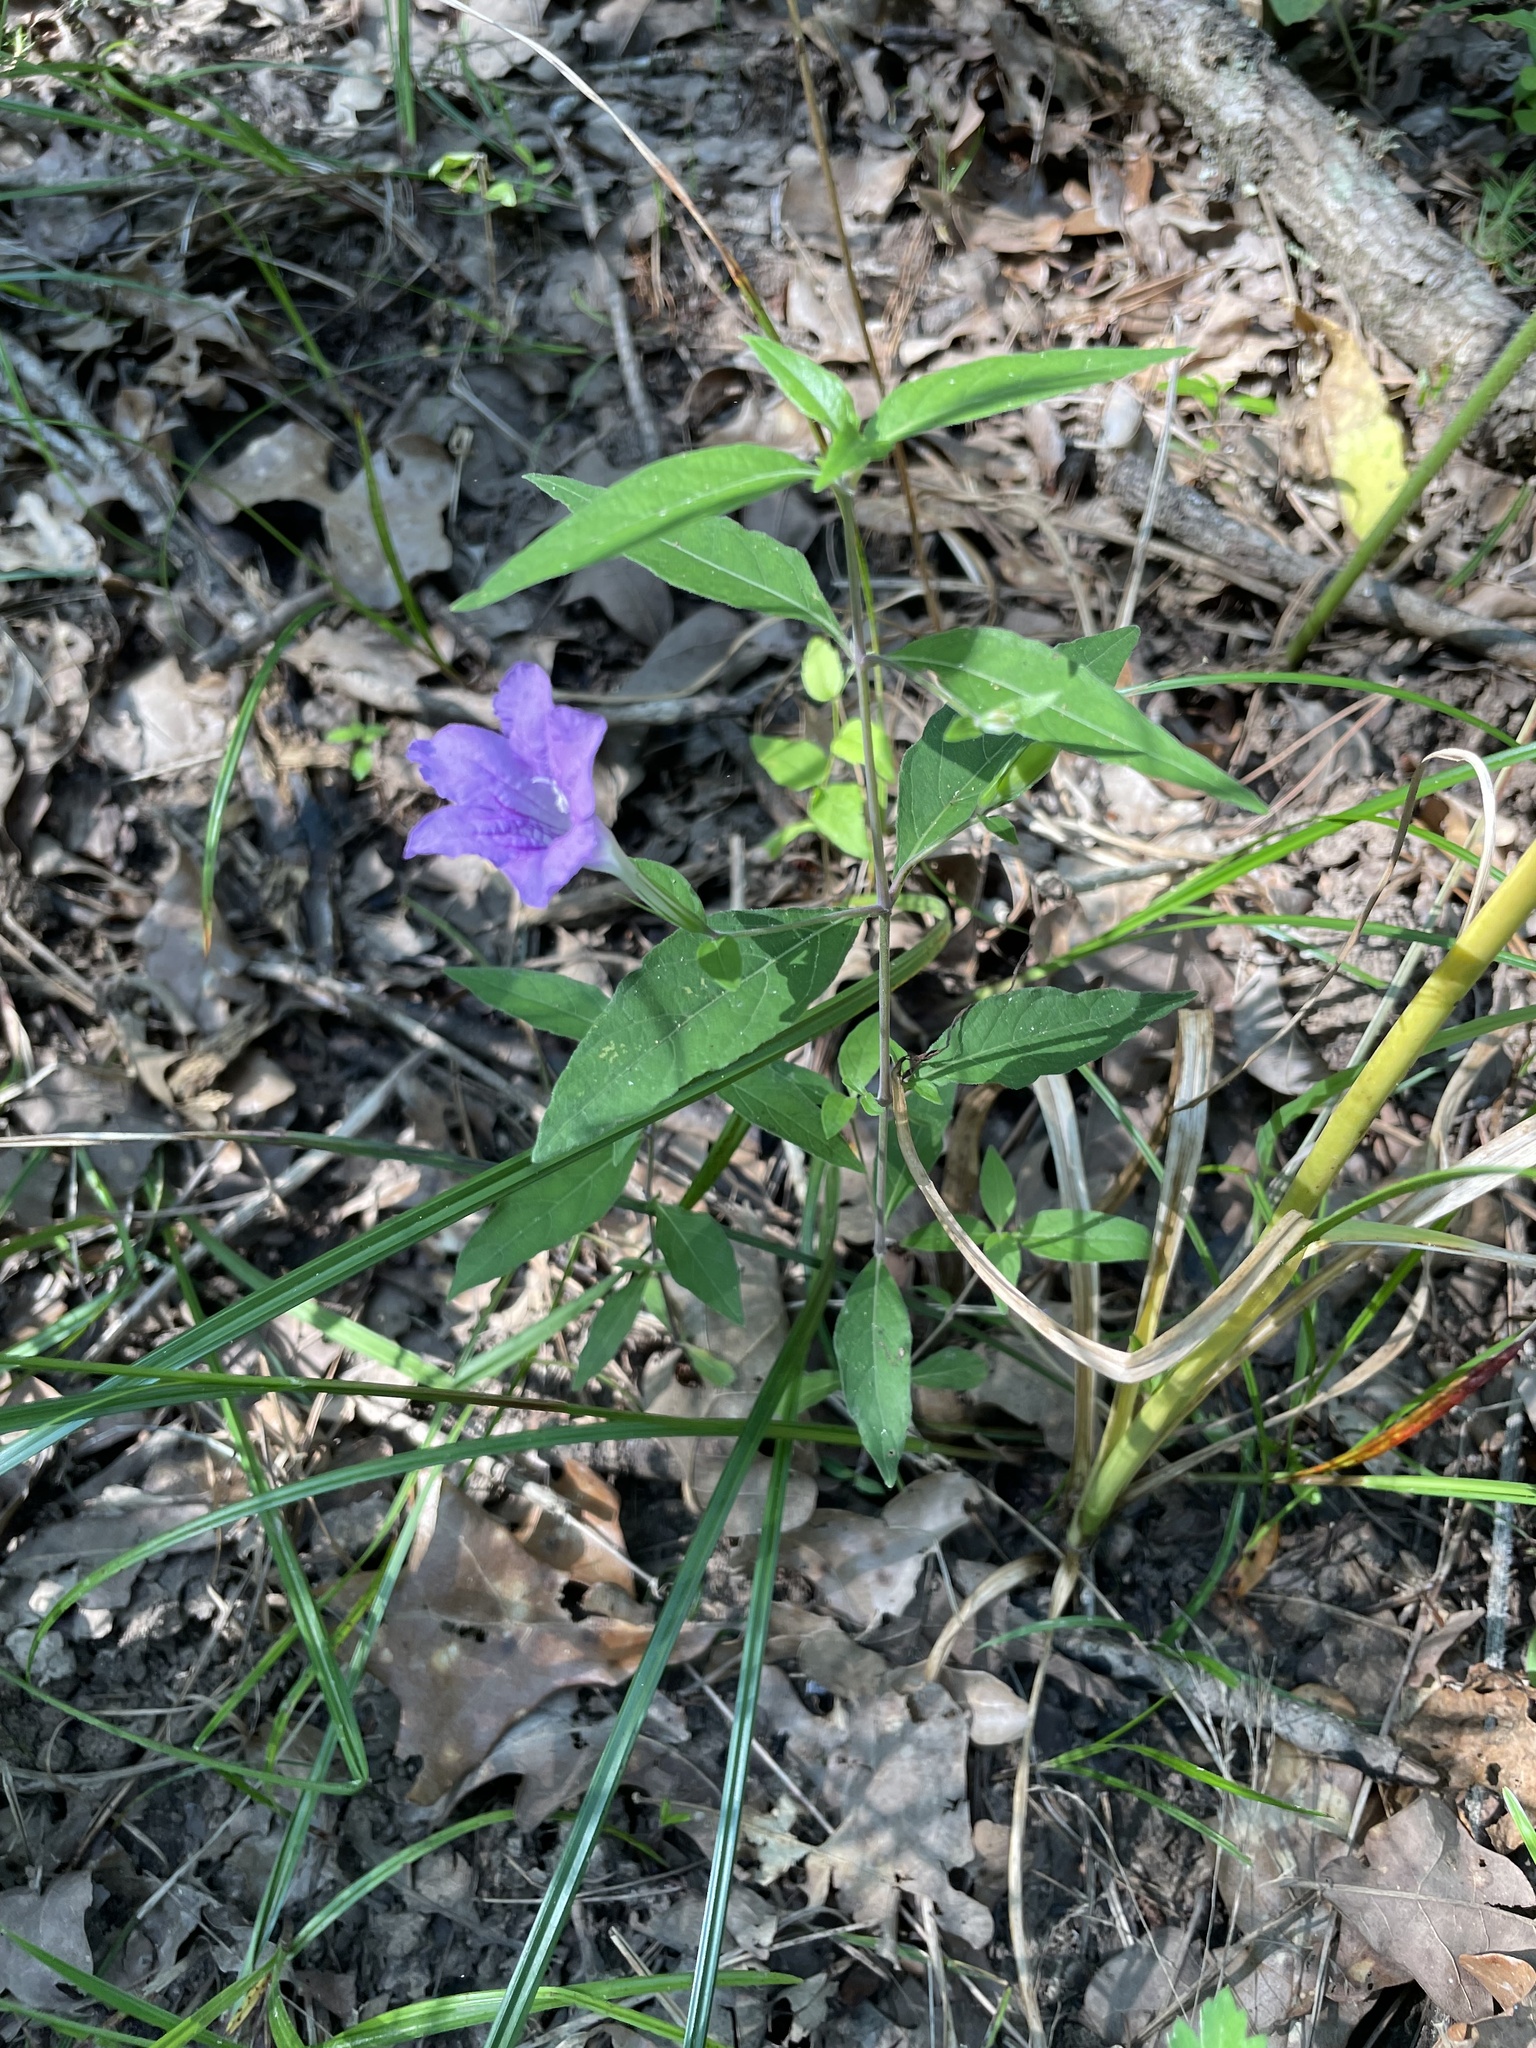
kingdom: Plantae
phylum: Tracheophyta
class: Magnoliopsida
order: Lamiales
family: Acanthaceae
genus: Ruellia
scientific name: Ruellia pedunculata
